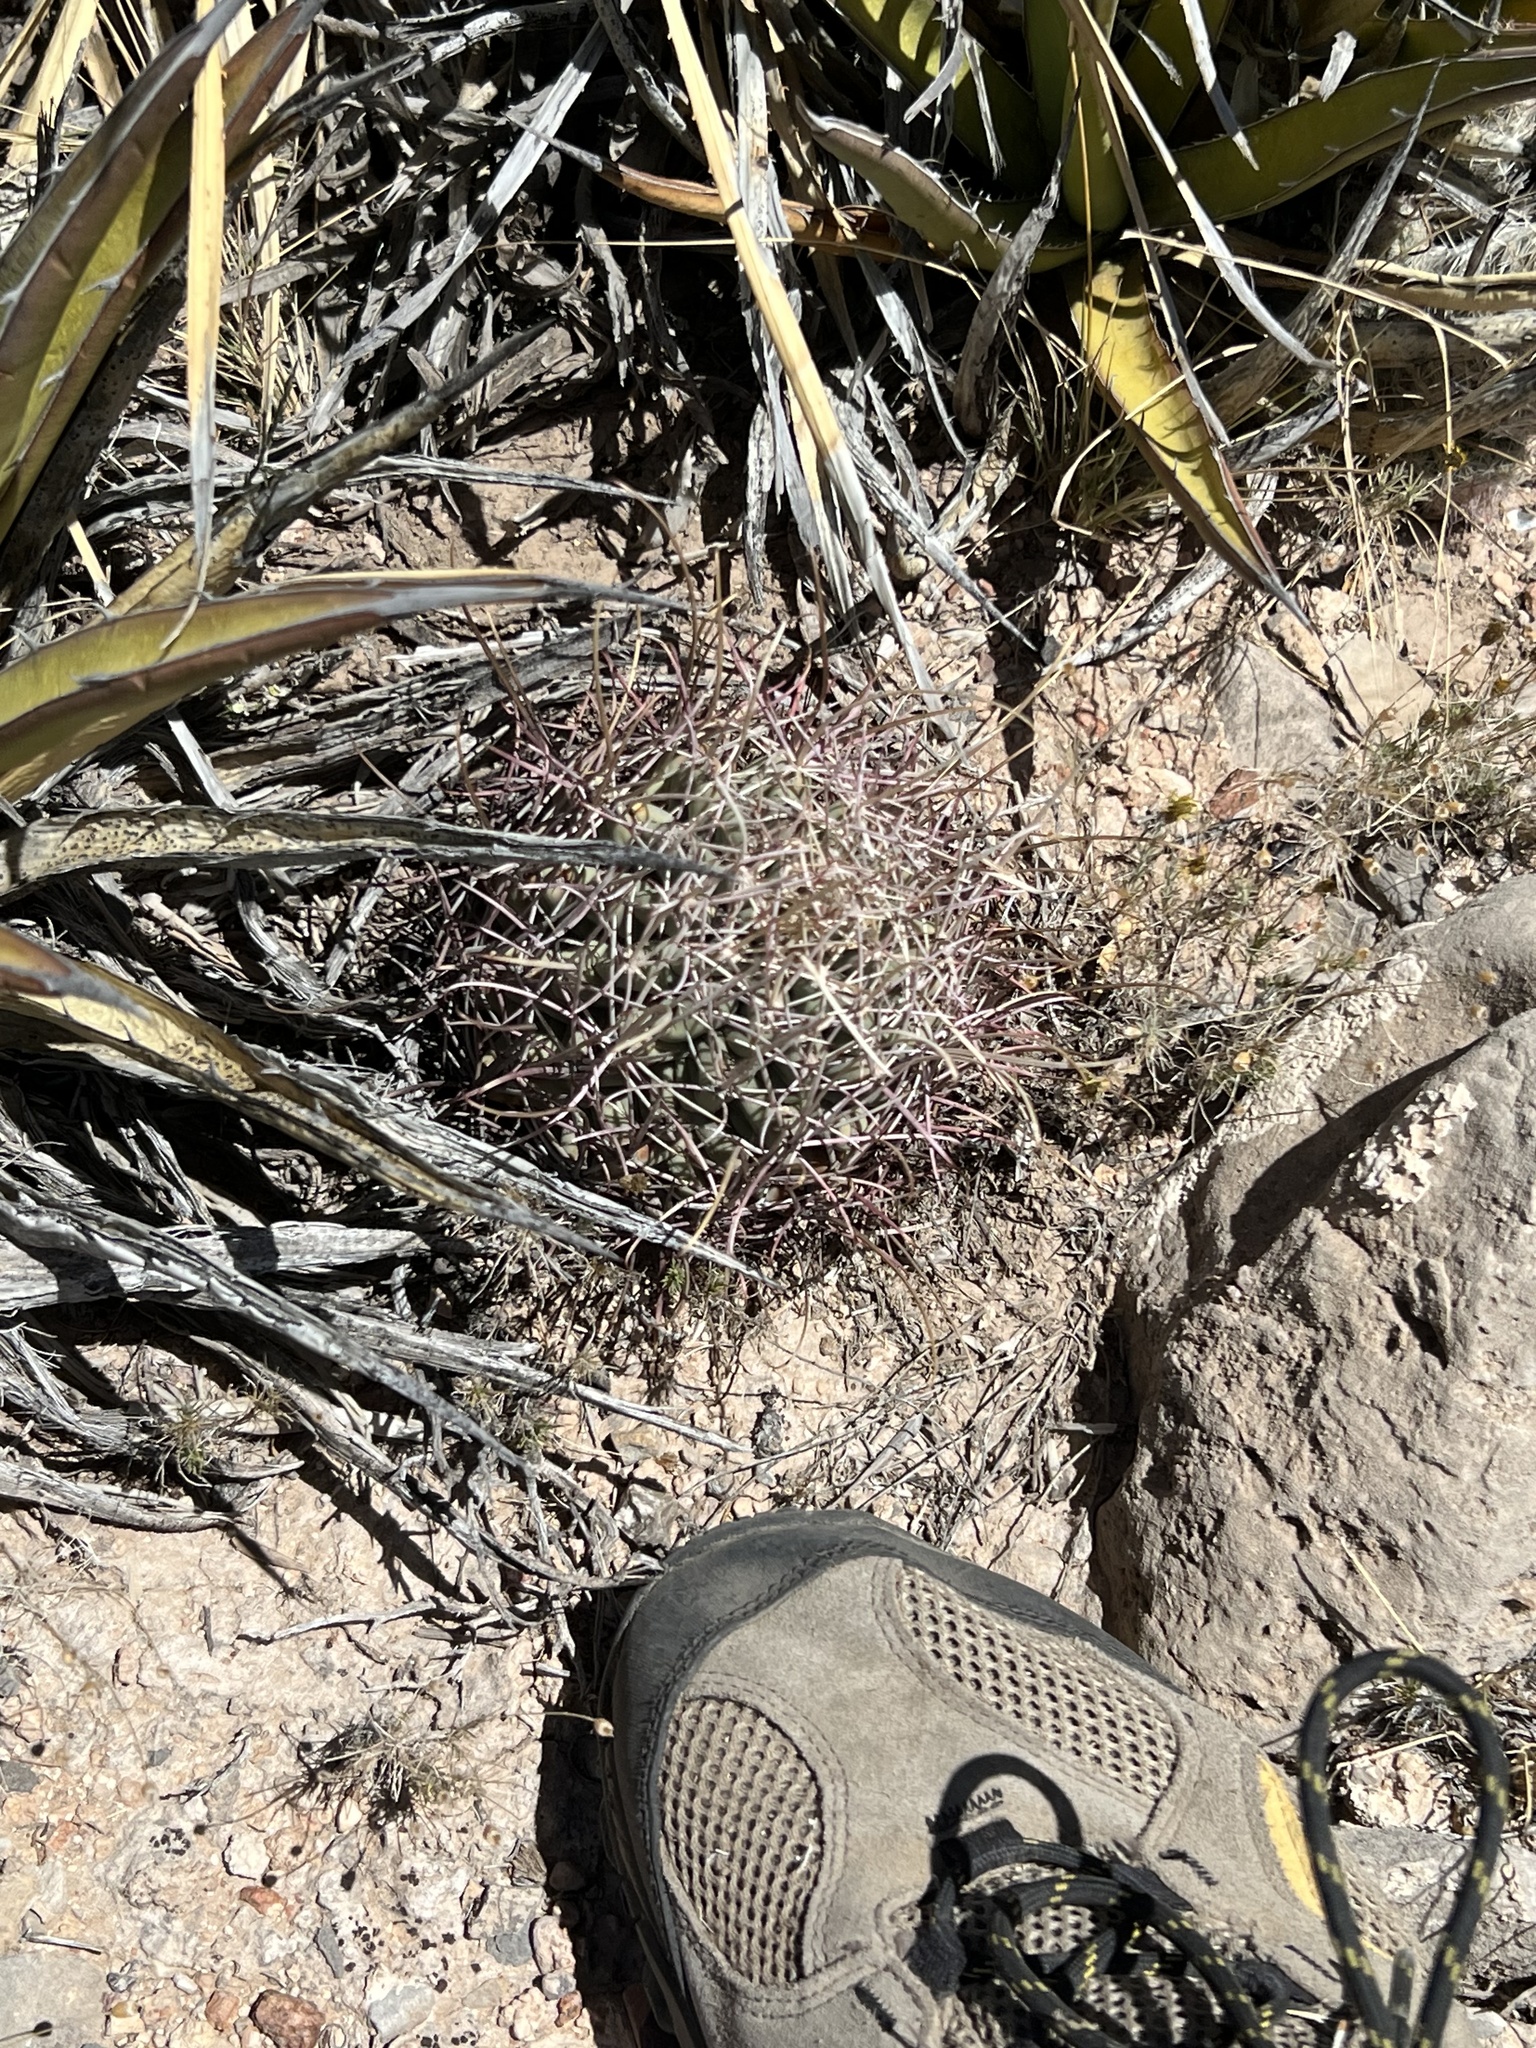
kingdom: Plantae
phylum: Tracheophyta
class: Magnoliopsida
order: Caryophyllales
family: Cactaceae
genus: Ferocactus
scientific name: Ferocactus uncinatus
